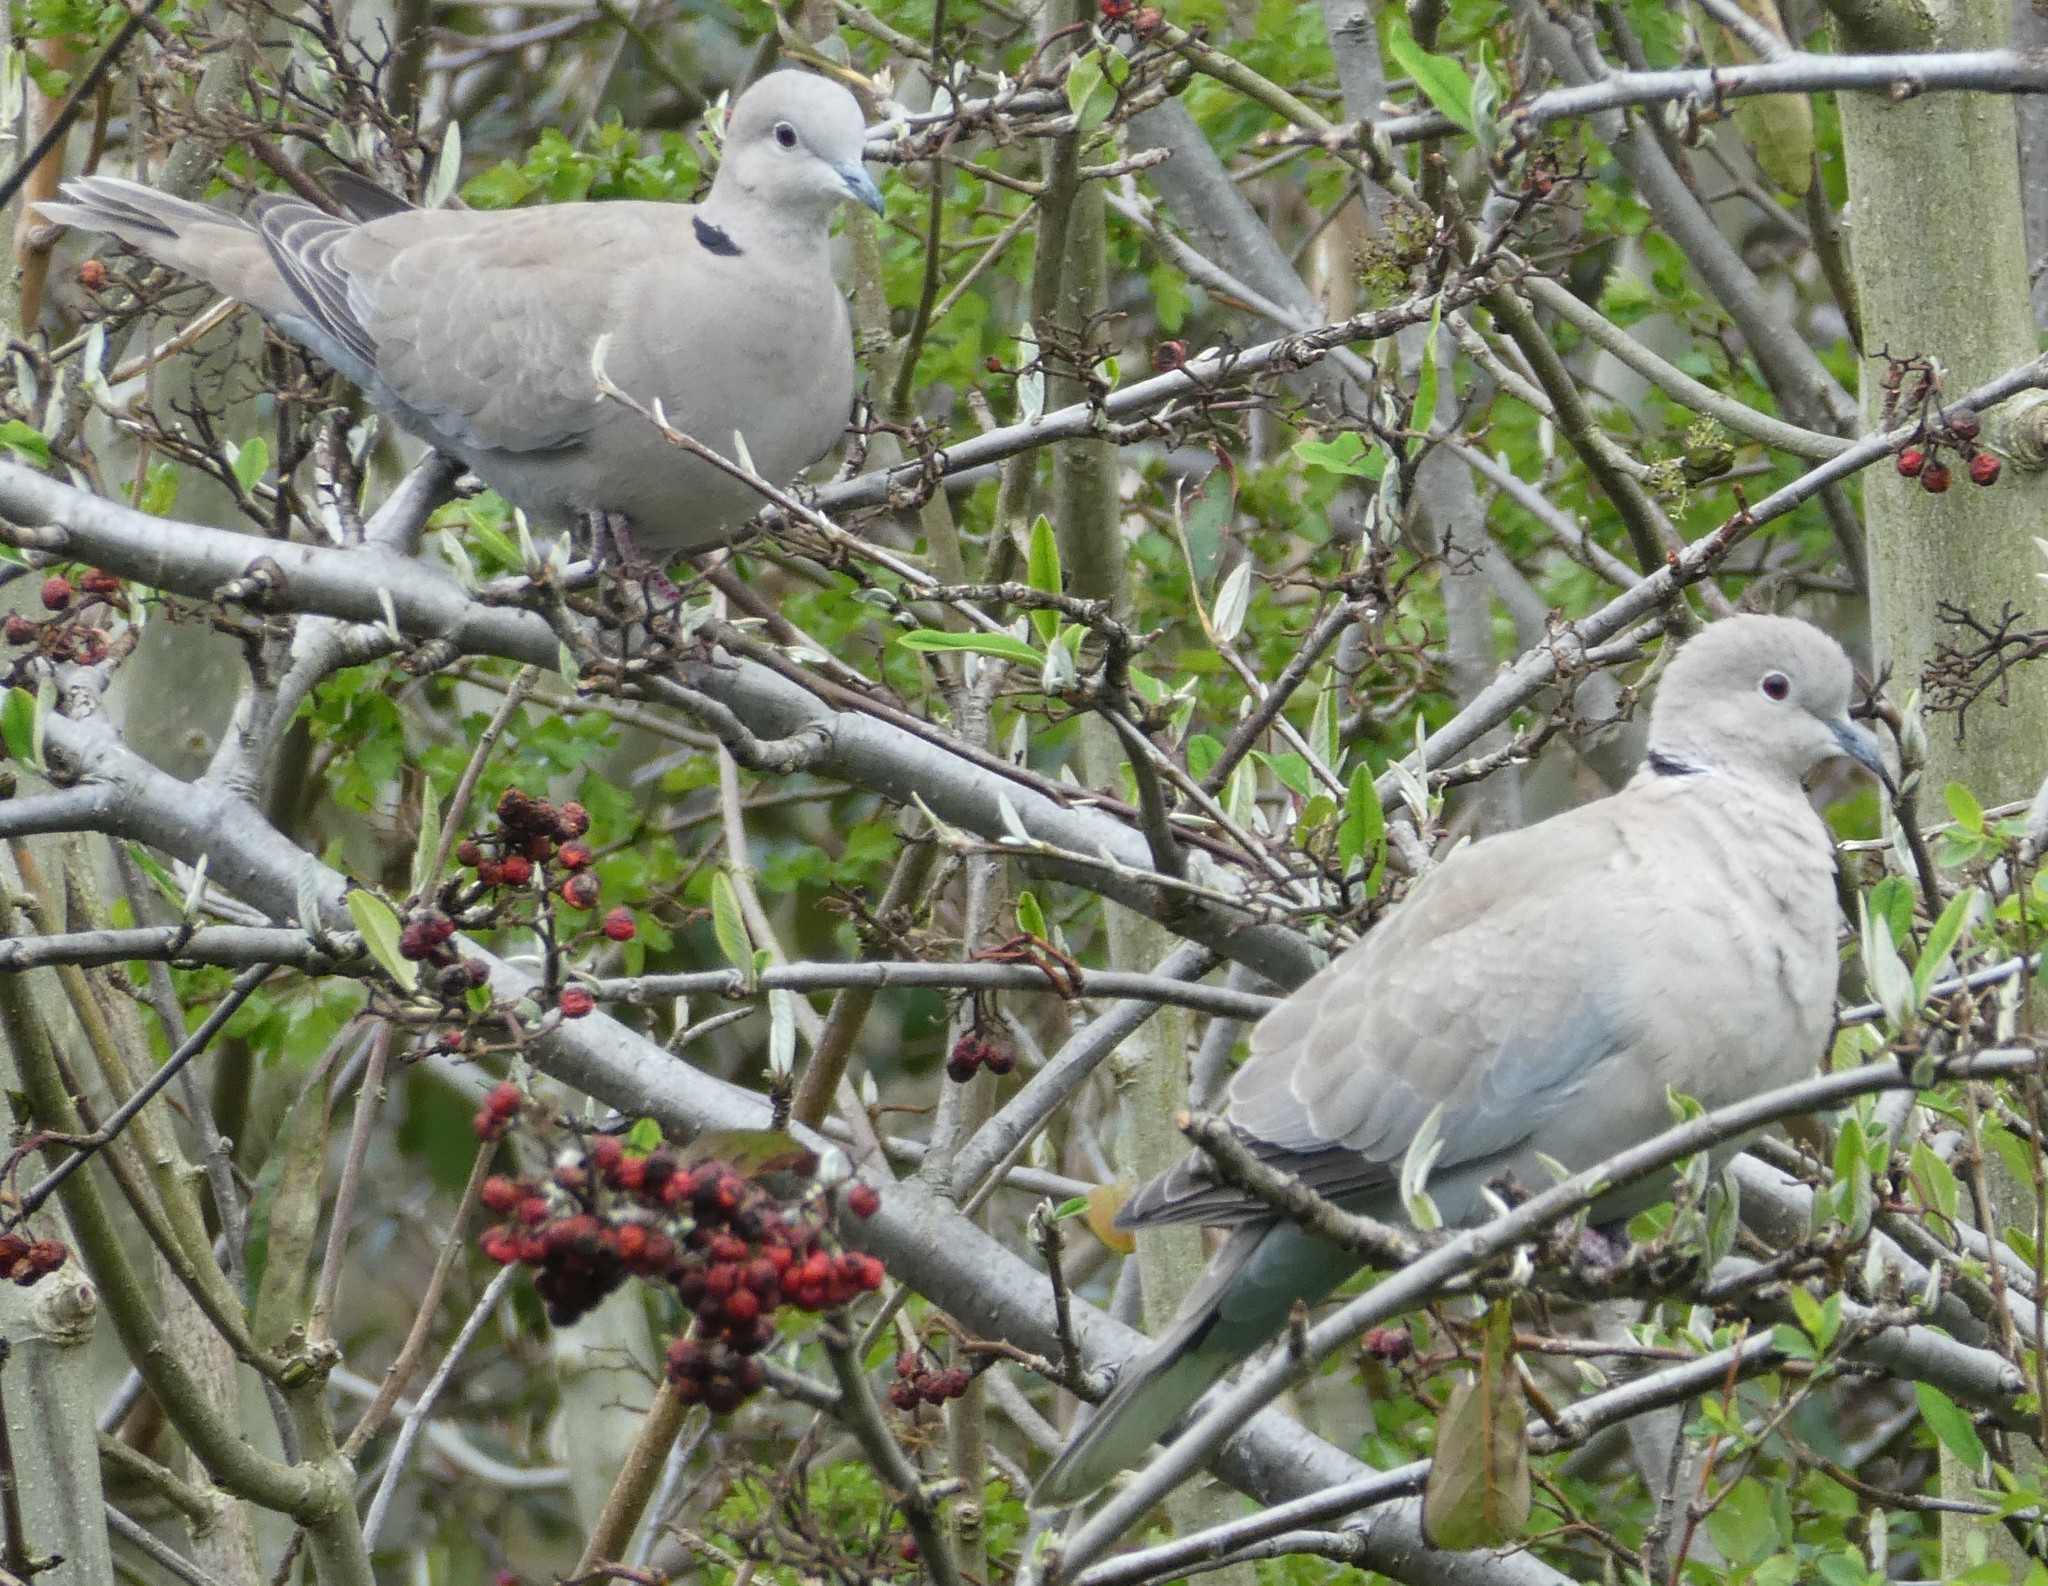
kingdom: Animalia
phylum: Chordata
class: Aves
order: Columbiformes
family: Columbidae
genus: Streptopelia
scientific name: Streptopelia decaocto
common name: Eurasian collared dove
